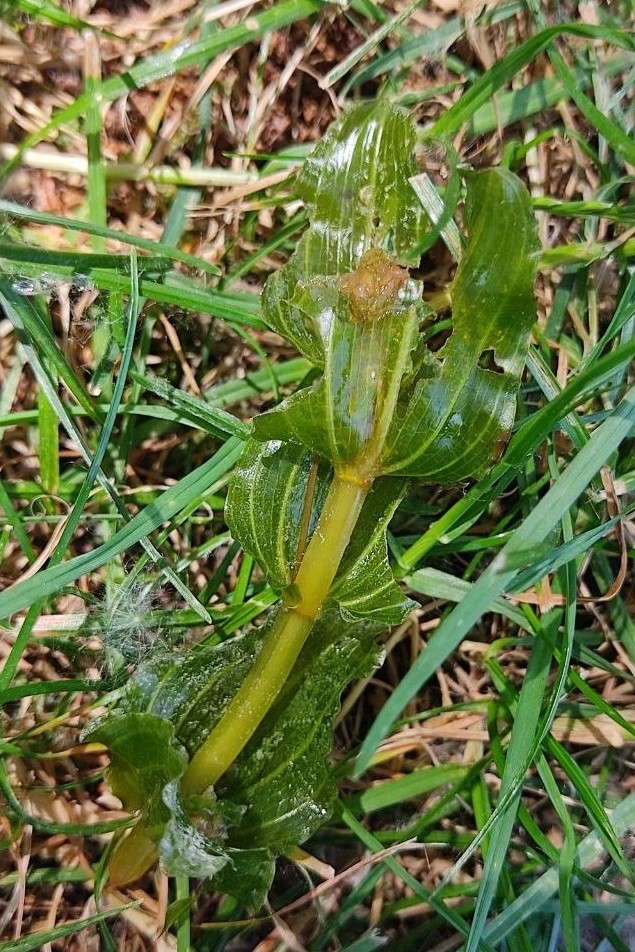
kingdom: Plantae
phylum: Tracheophyta
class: Liliopsida
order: Alismatales
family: Potamogetonaceae
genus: Potamogeton
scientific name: Potamogeton perfoliatus
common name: Perfoliate pondweed
